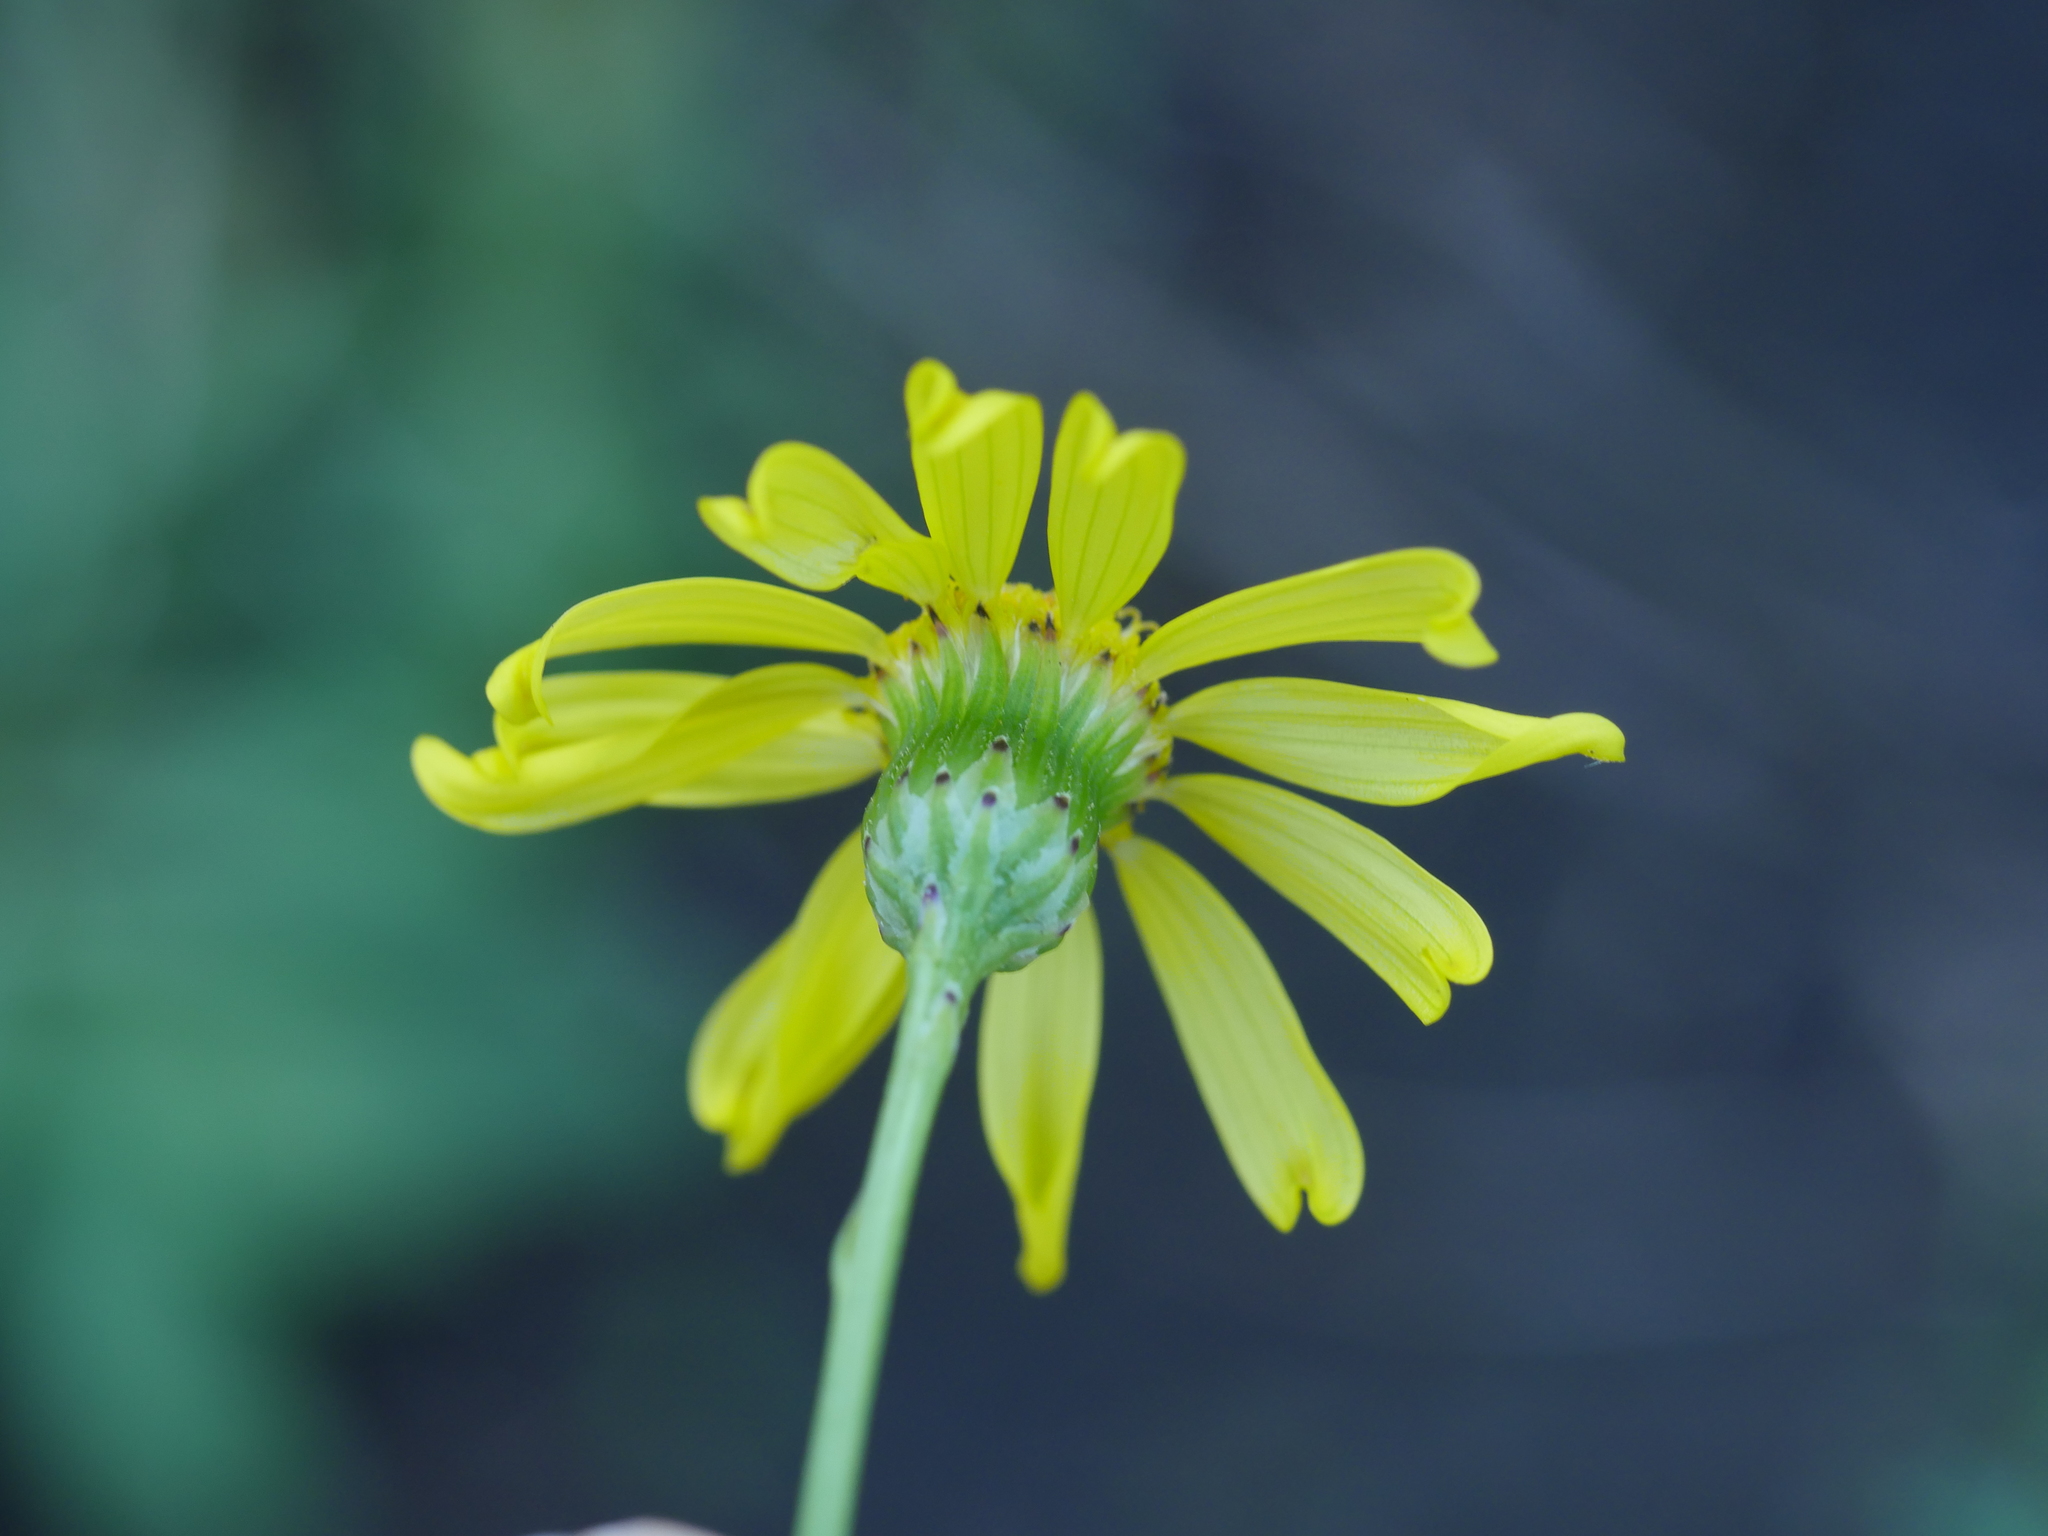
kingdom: Plantae
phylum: Tracheophyta
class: Magnoliopsida
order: Asterales
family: Asteraceae
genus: Senecio
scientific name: Senecio skirrhodon
